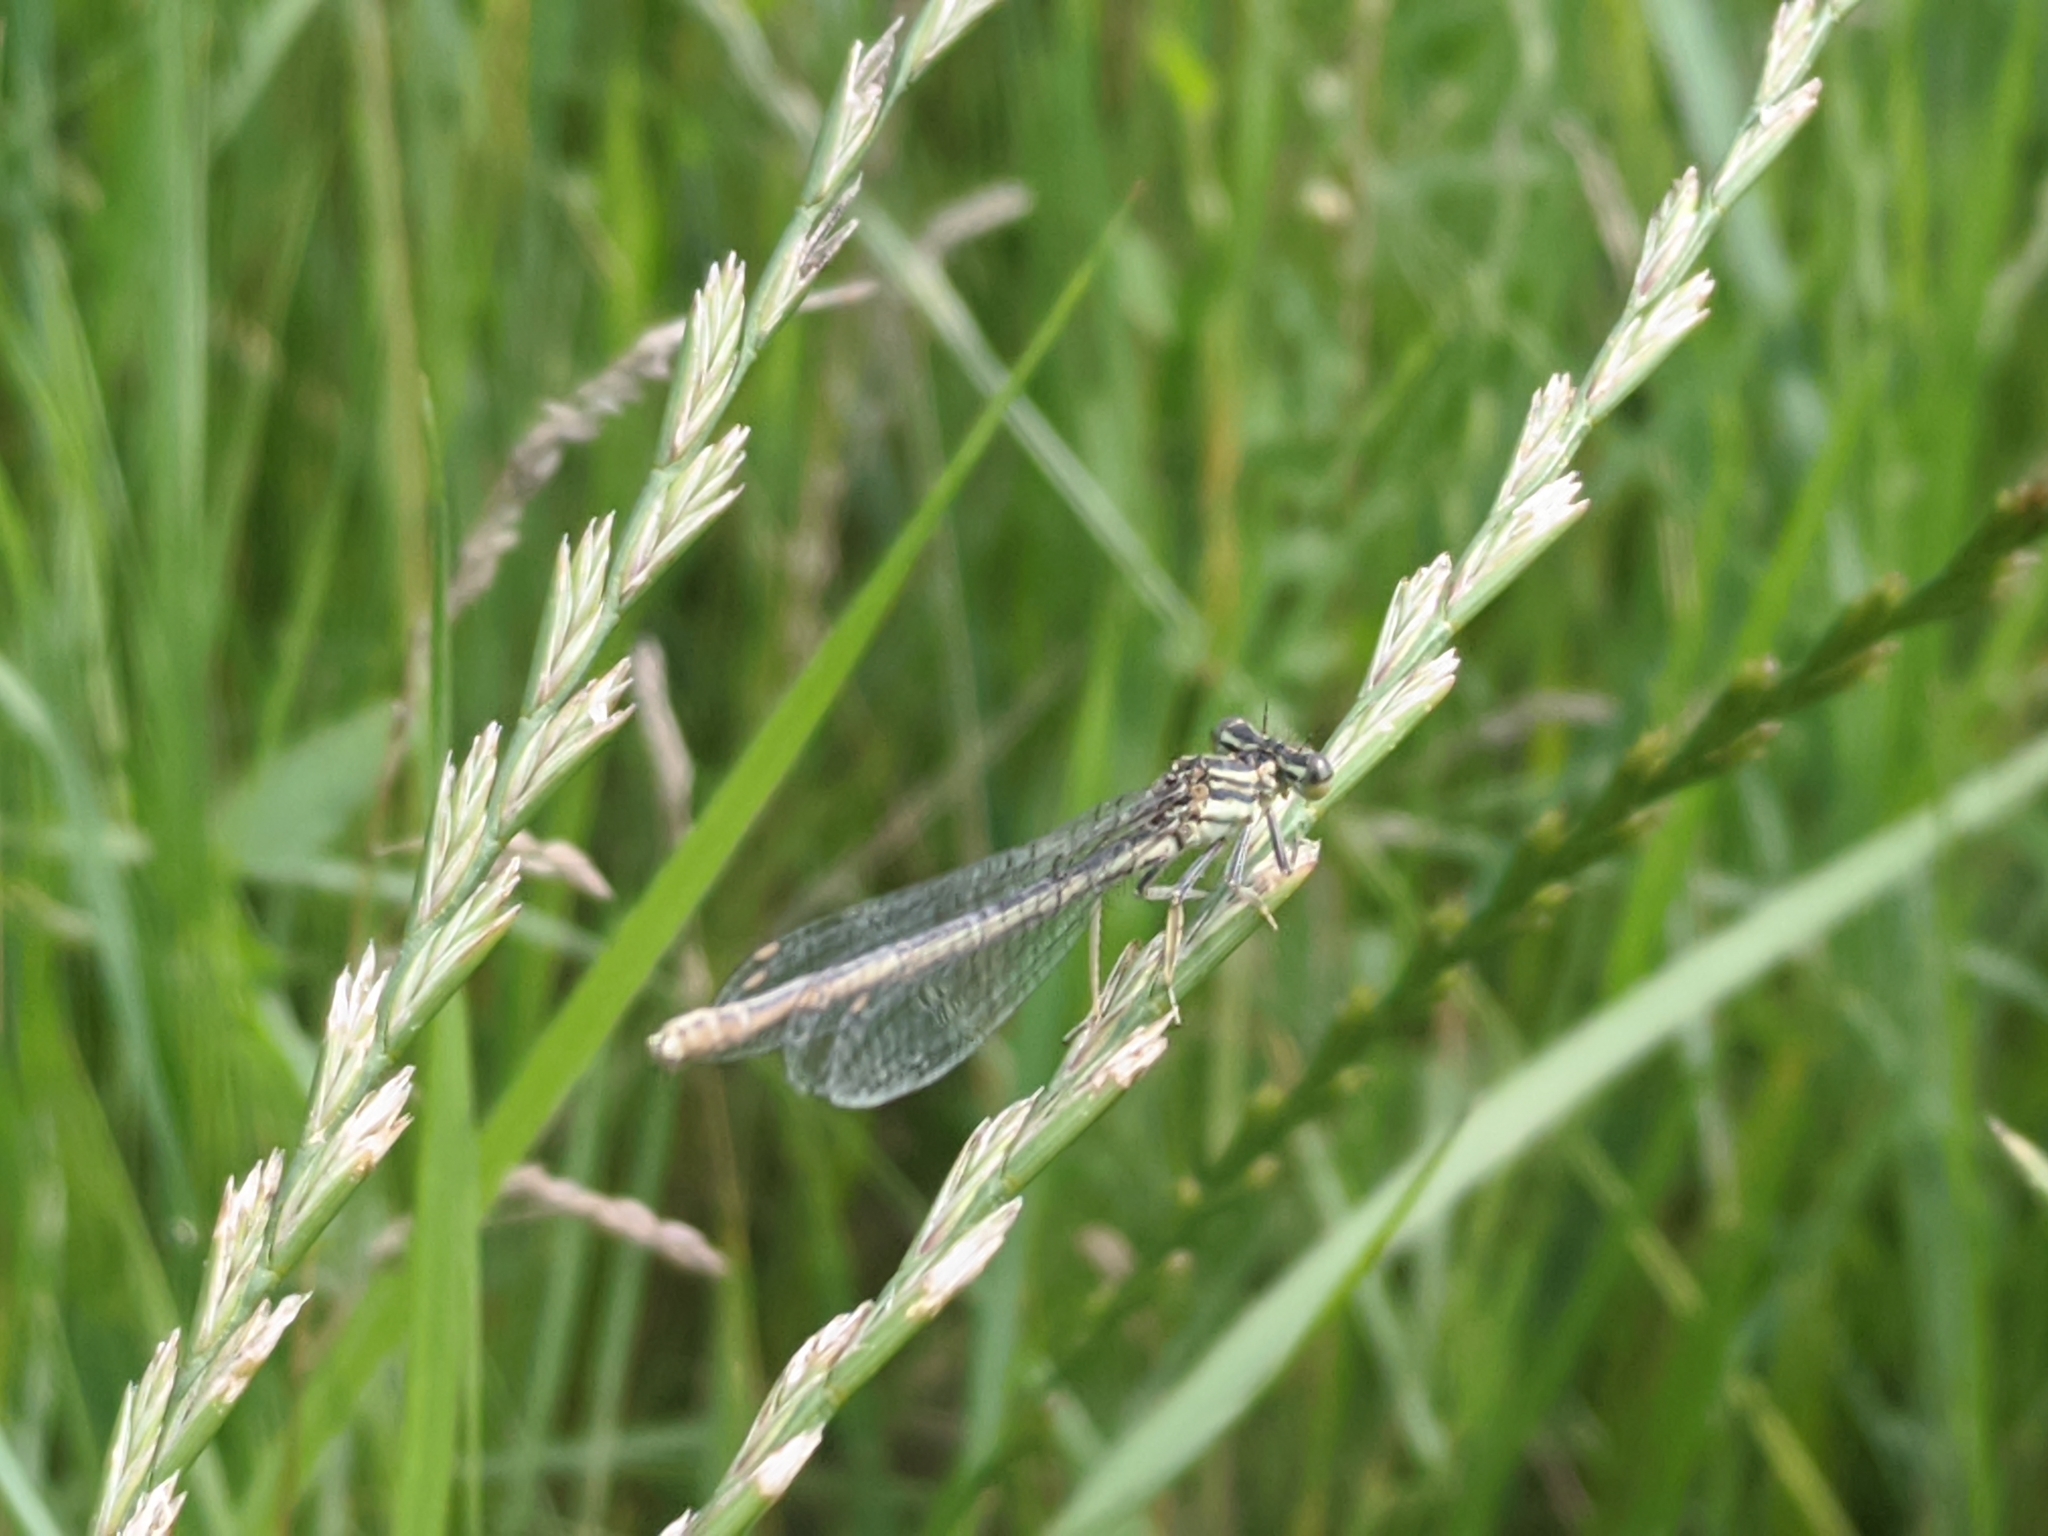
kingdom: Animalia
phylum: Arthropoda
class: Insecta
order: Odonata
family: Platycnemididae
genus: Platycnemis
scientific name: Platycnemis pennipes
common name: White-legged damselfly
